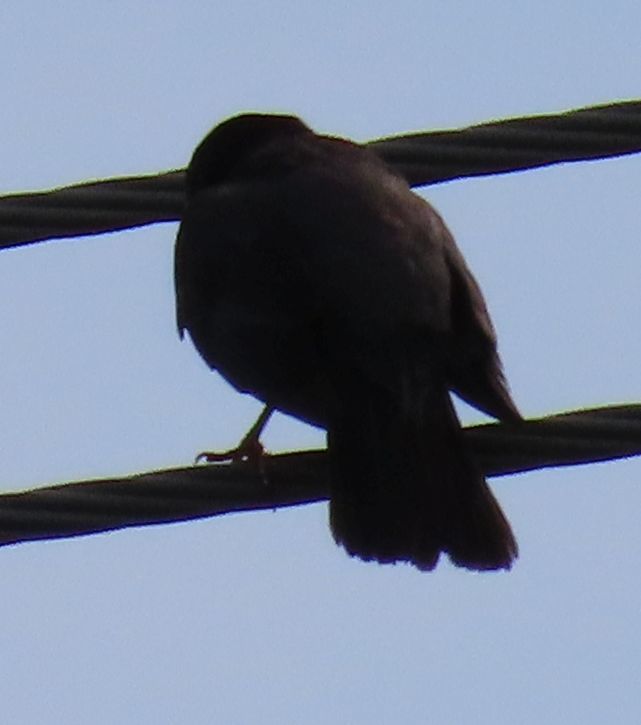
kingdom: Animalia
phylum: Chordata
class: Aves
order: Passeriformes
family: Turdidae
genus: Turdus
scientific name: Turdus migratorius
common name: American robin
